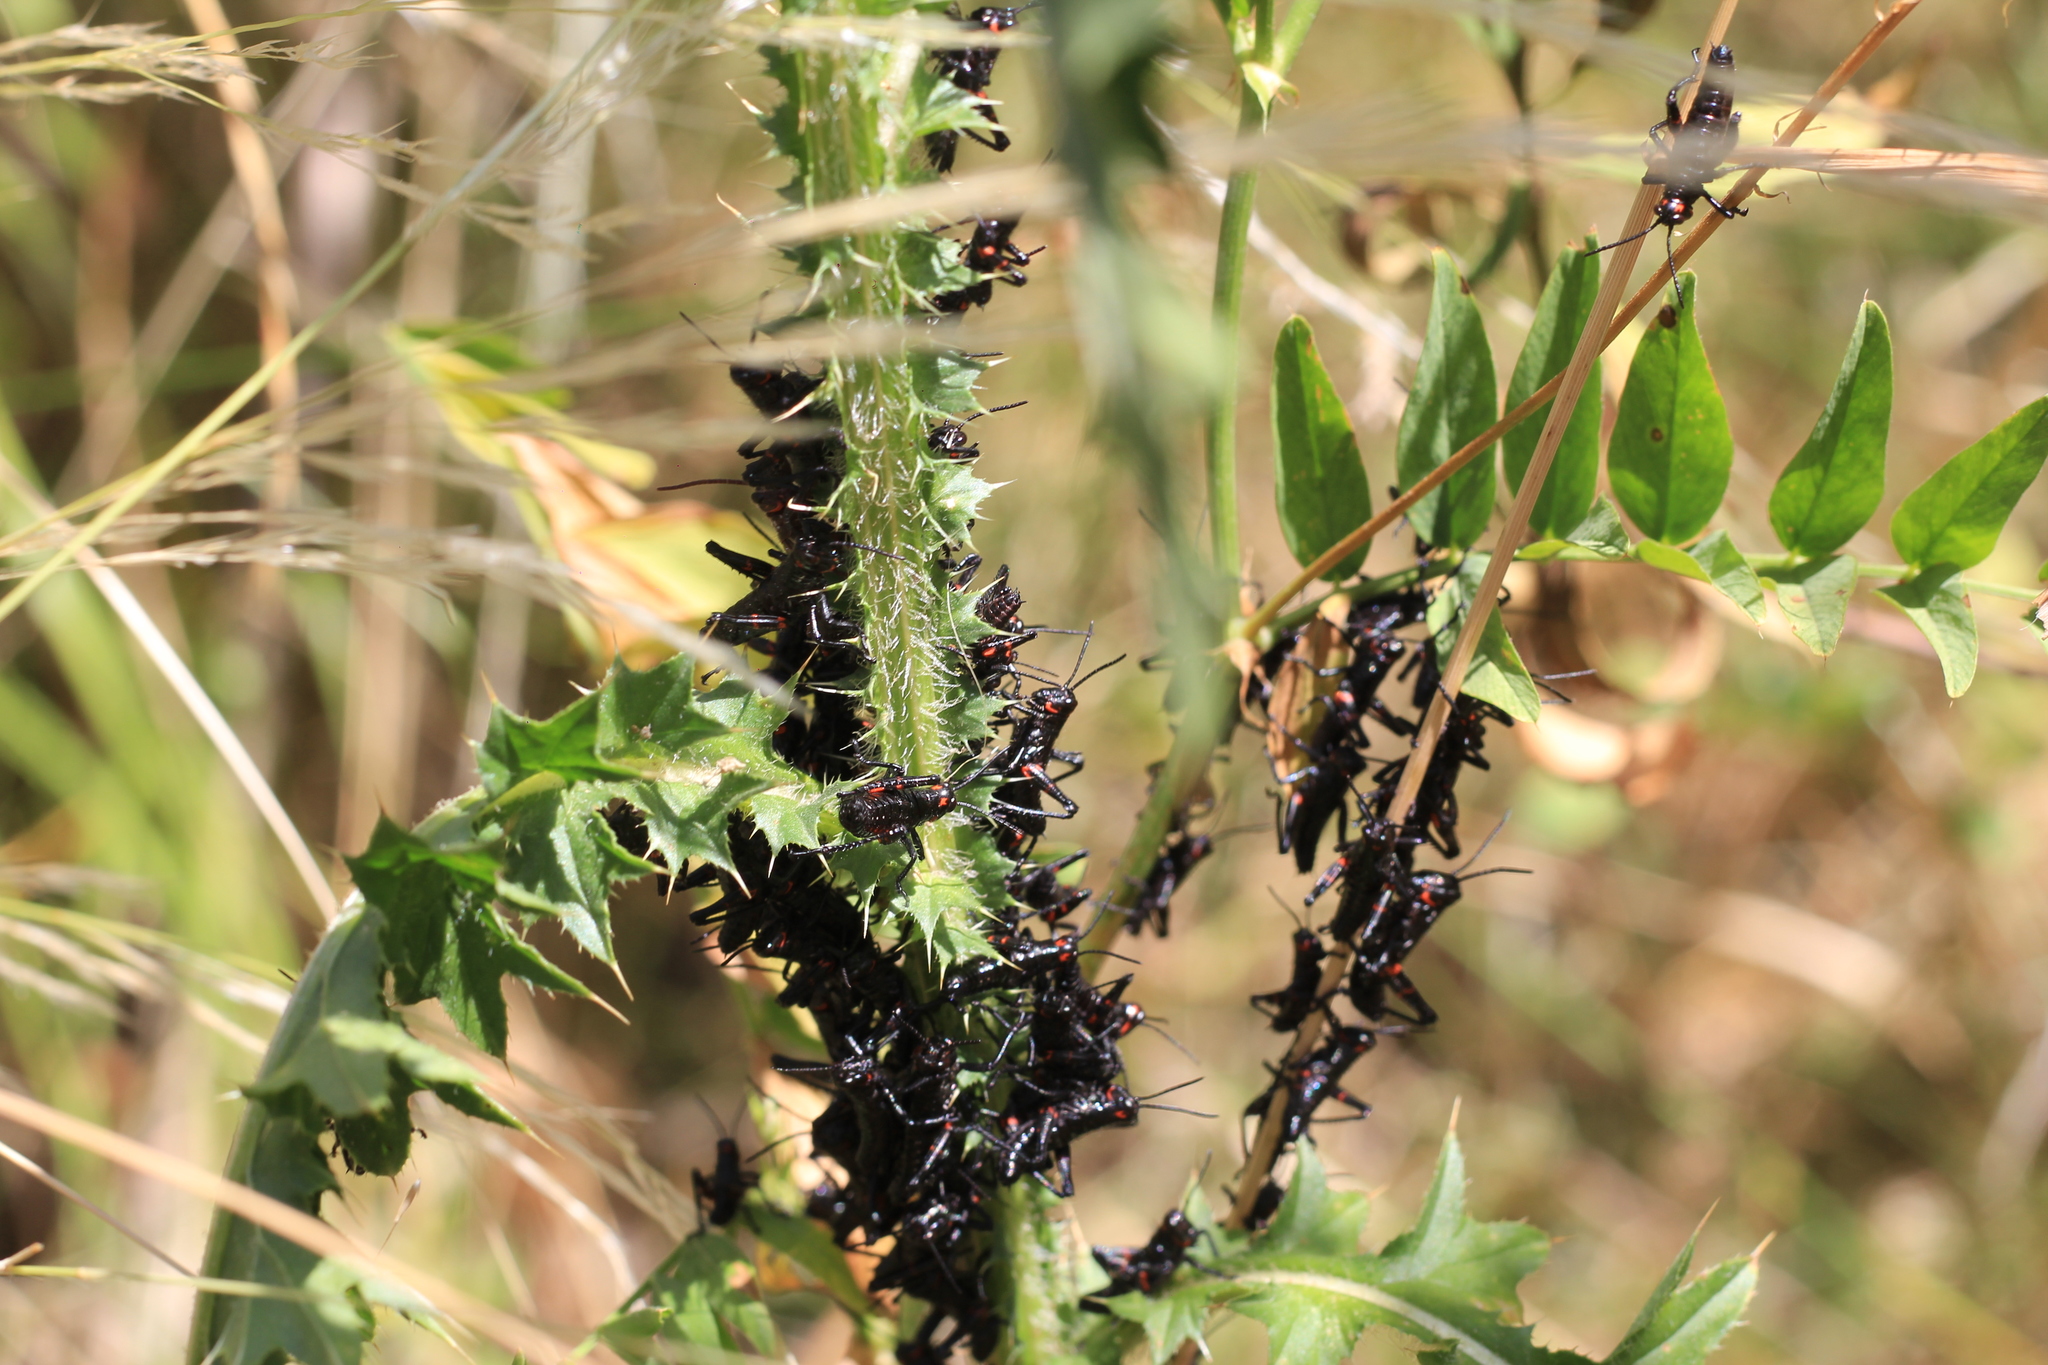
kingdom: Animalia
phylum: Arthropoda
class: Insecta
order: Orthoptera
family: Romaleidae
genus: Chromacris
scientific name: Chromacris speciosa
